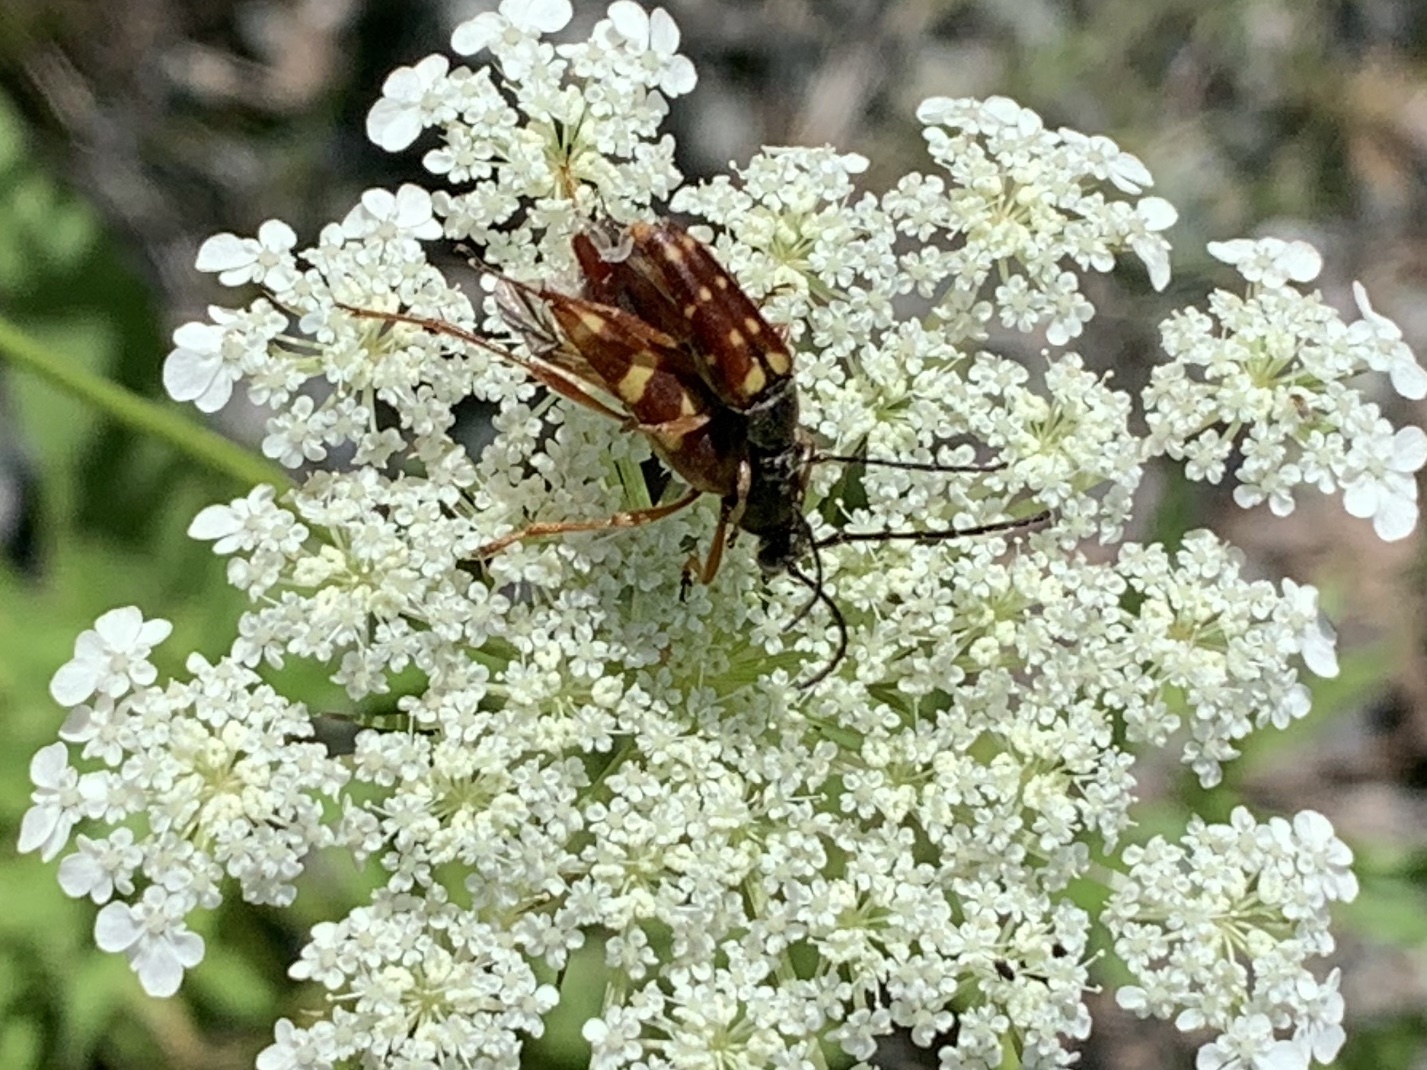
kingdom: Animalia
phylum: Arthropoda
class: Insecta
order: Coleoptera
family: Cerambycidae
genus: Typocerus
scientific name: Typocerus velutinus
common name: Banded longhorn beetle
